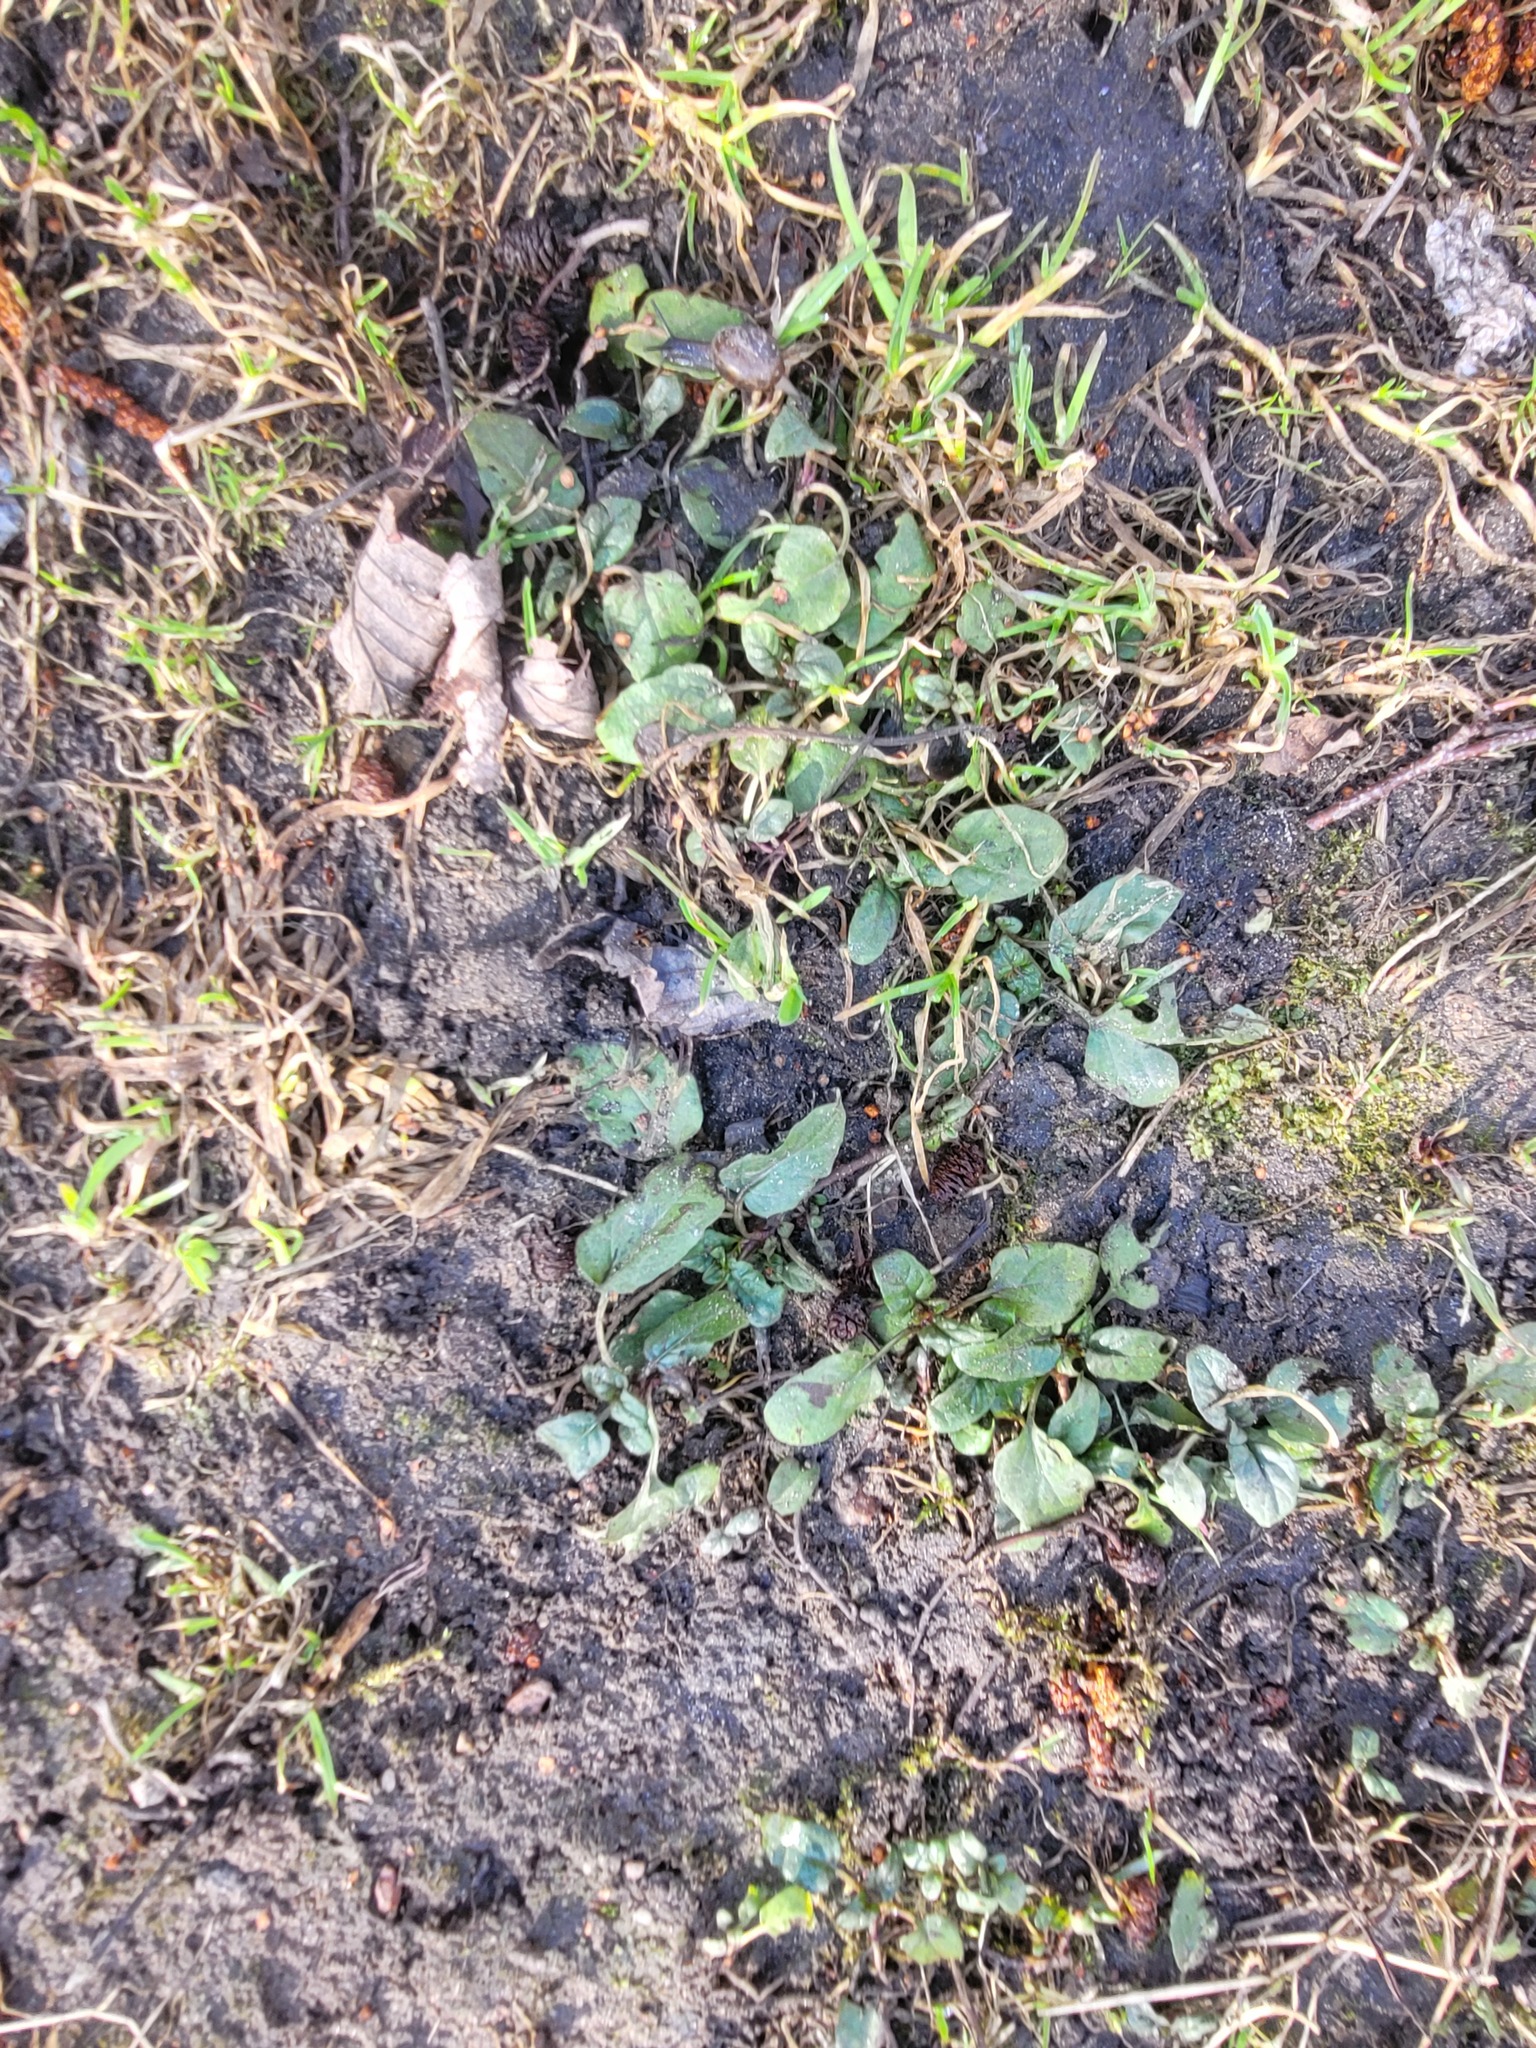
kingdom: Plantae
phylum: Tracheophyta
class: Magnoliopsida
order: Lamiales
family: Lamiaceae
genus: Prunella
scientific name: Prunella vulgaris
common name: Heal-all
